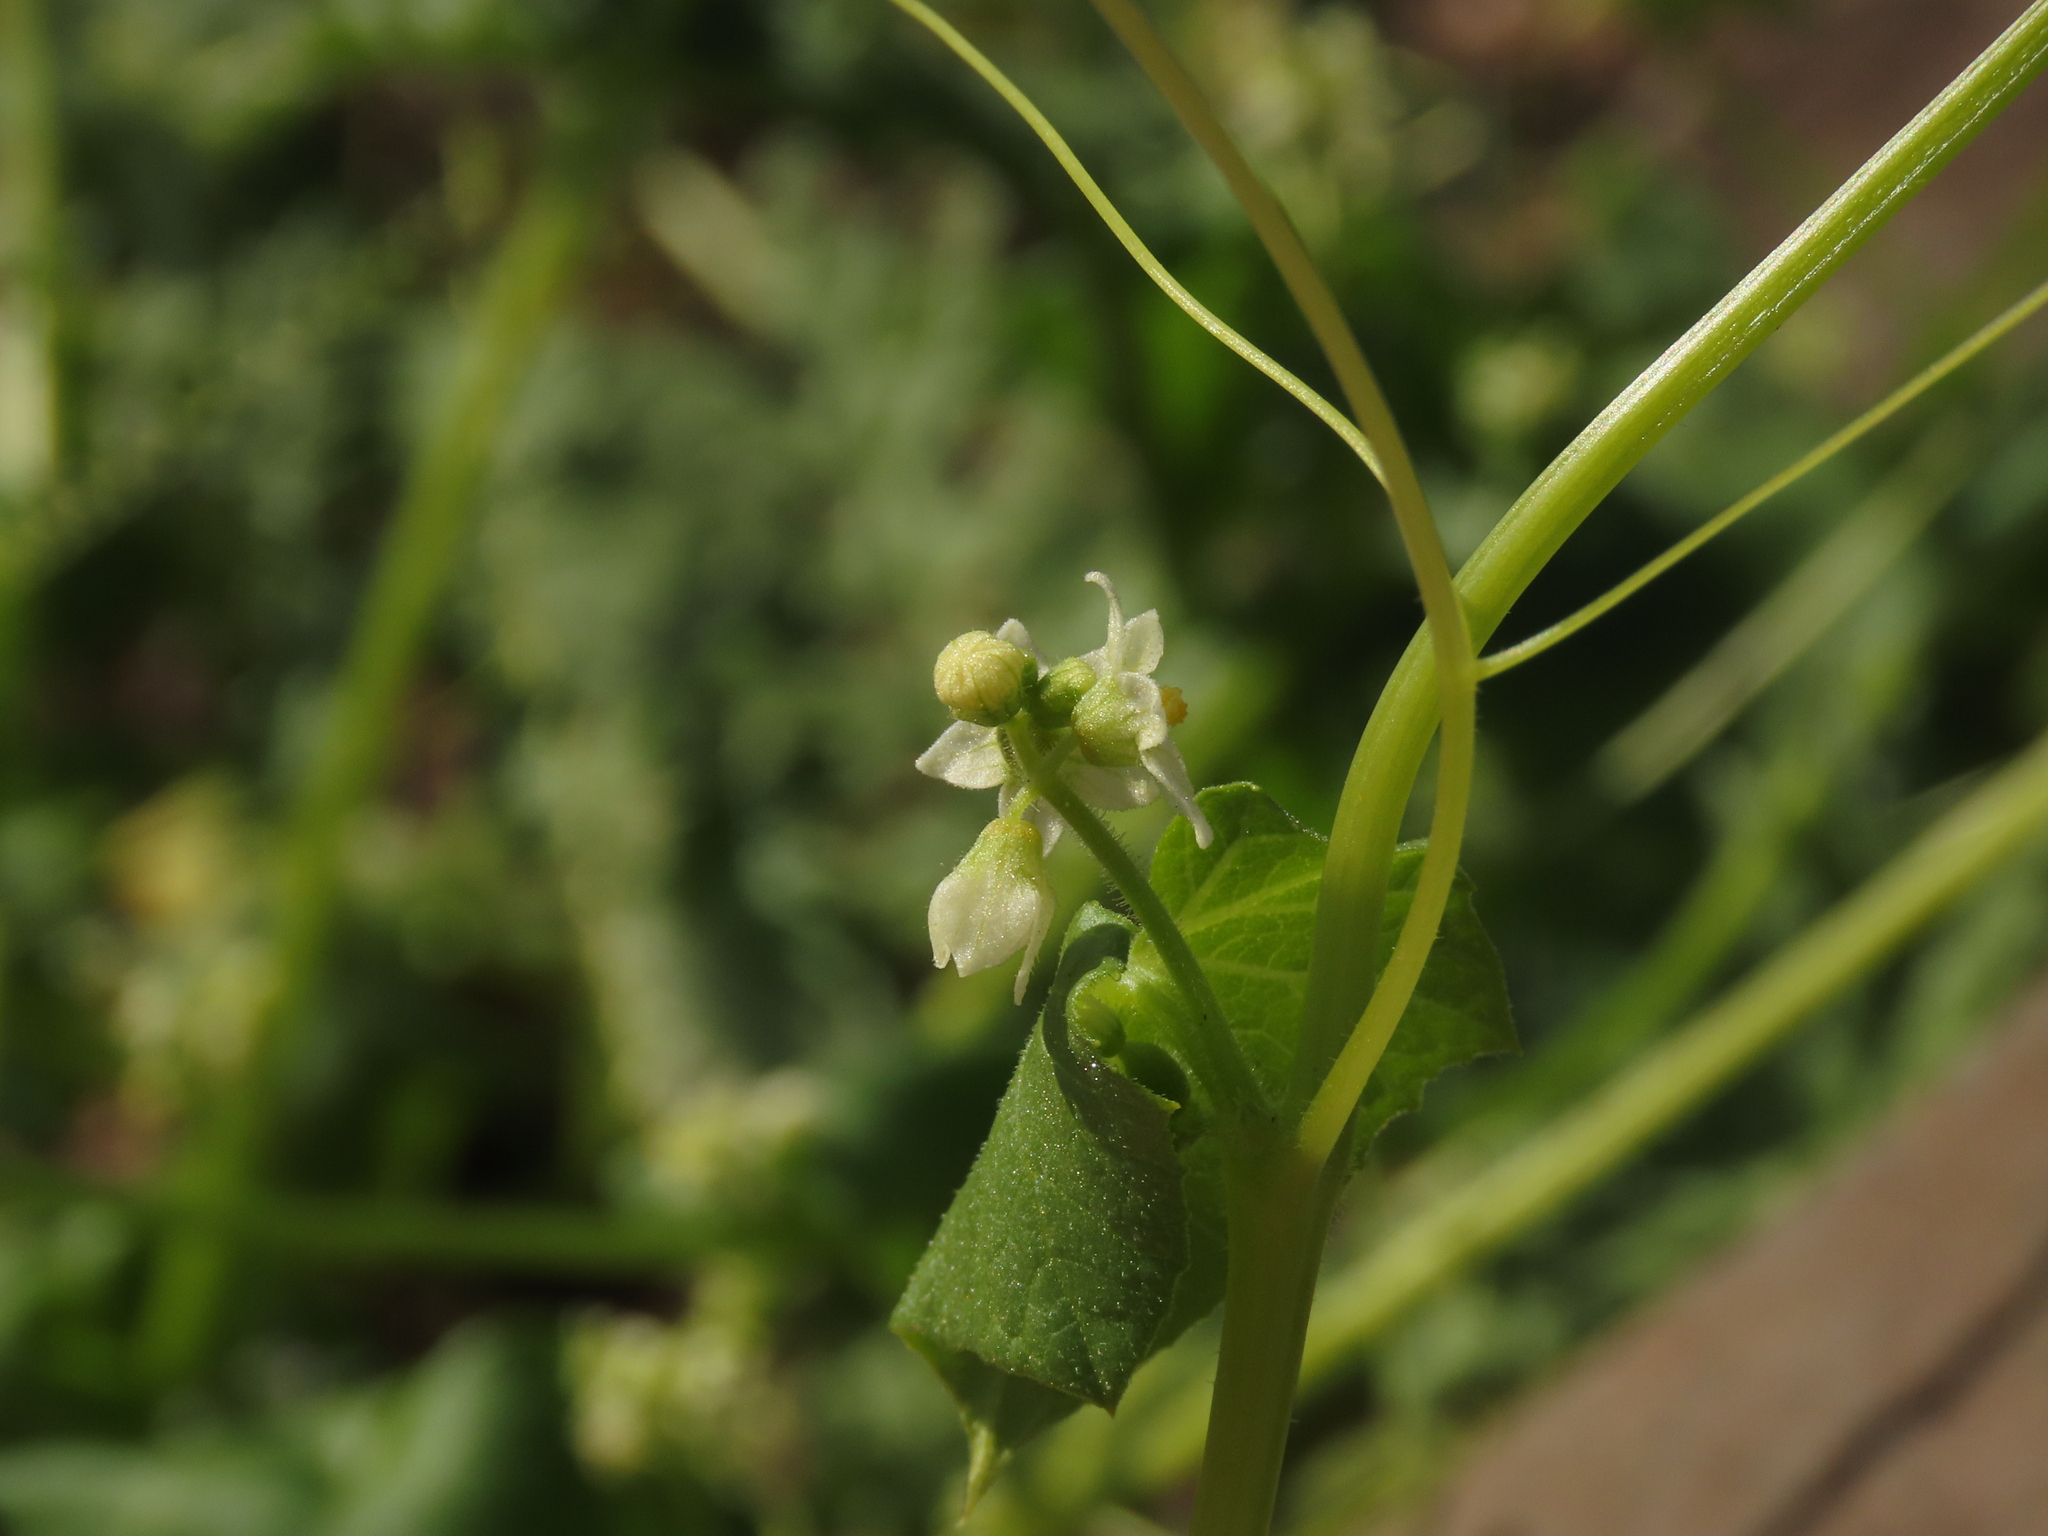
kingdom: Plantae
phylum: Tracheophyta
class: Magnoliopsida
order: Cucurbitales
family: Cucurbitaceae
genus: Sicyos
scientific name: Sicyos baderoa
